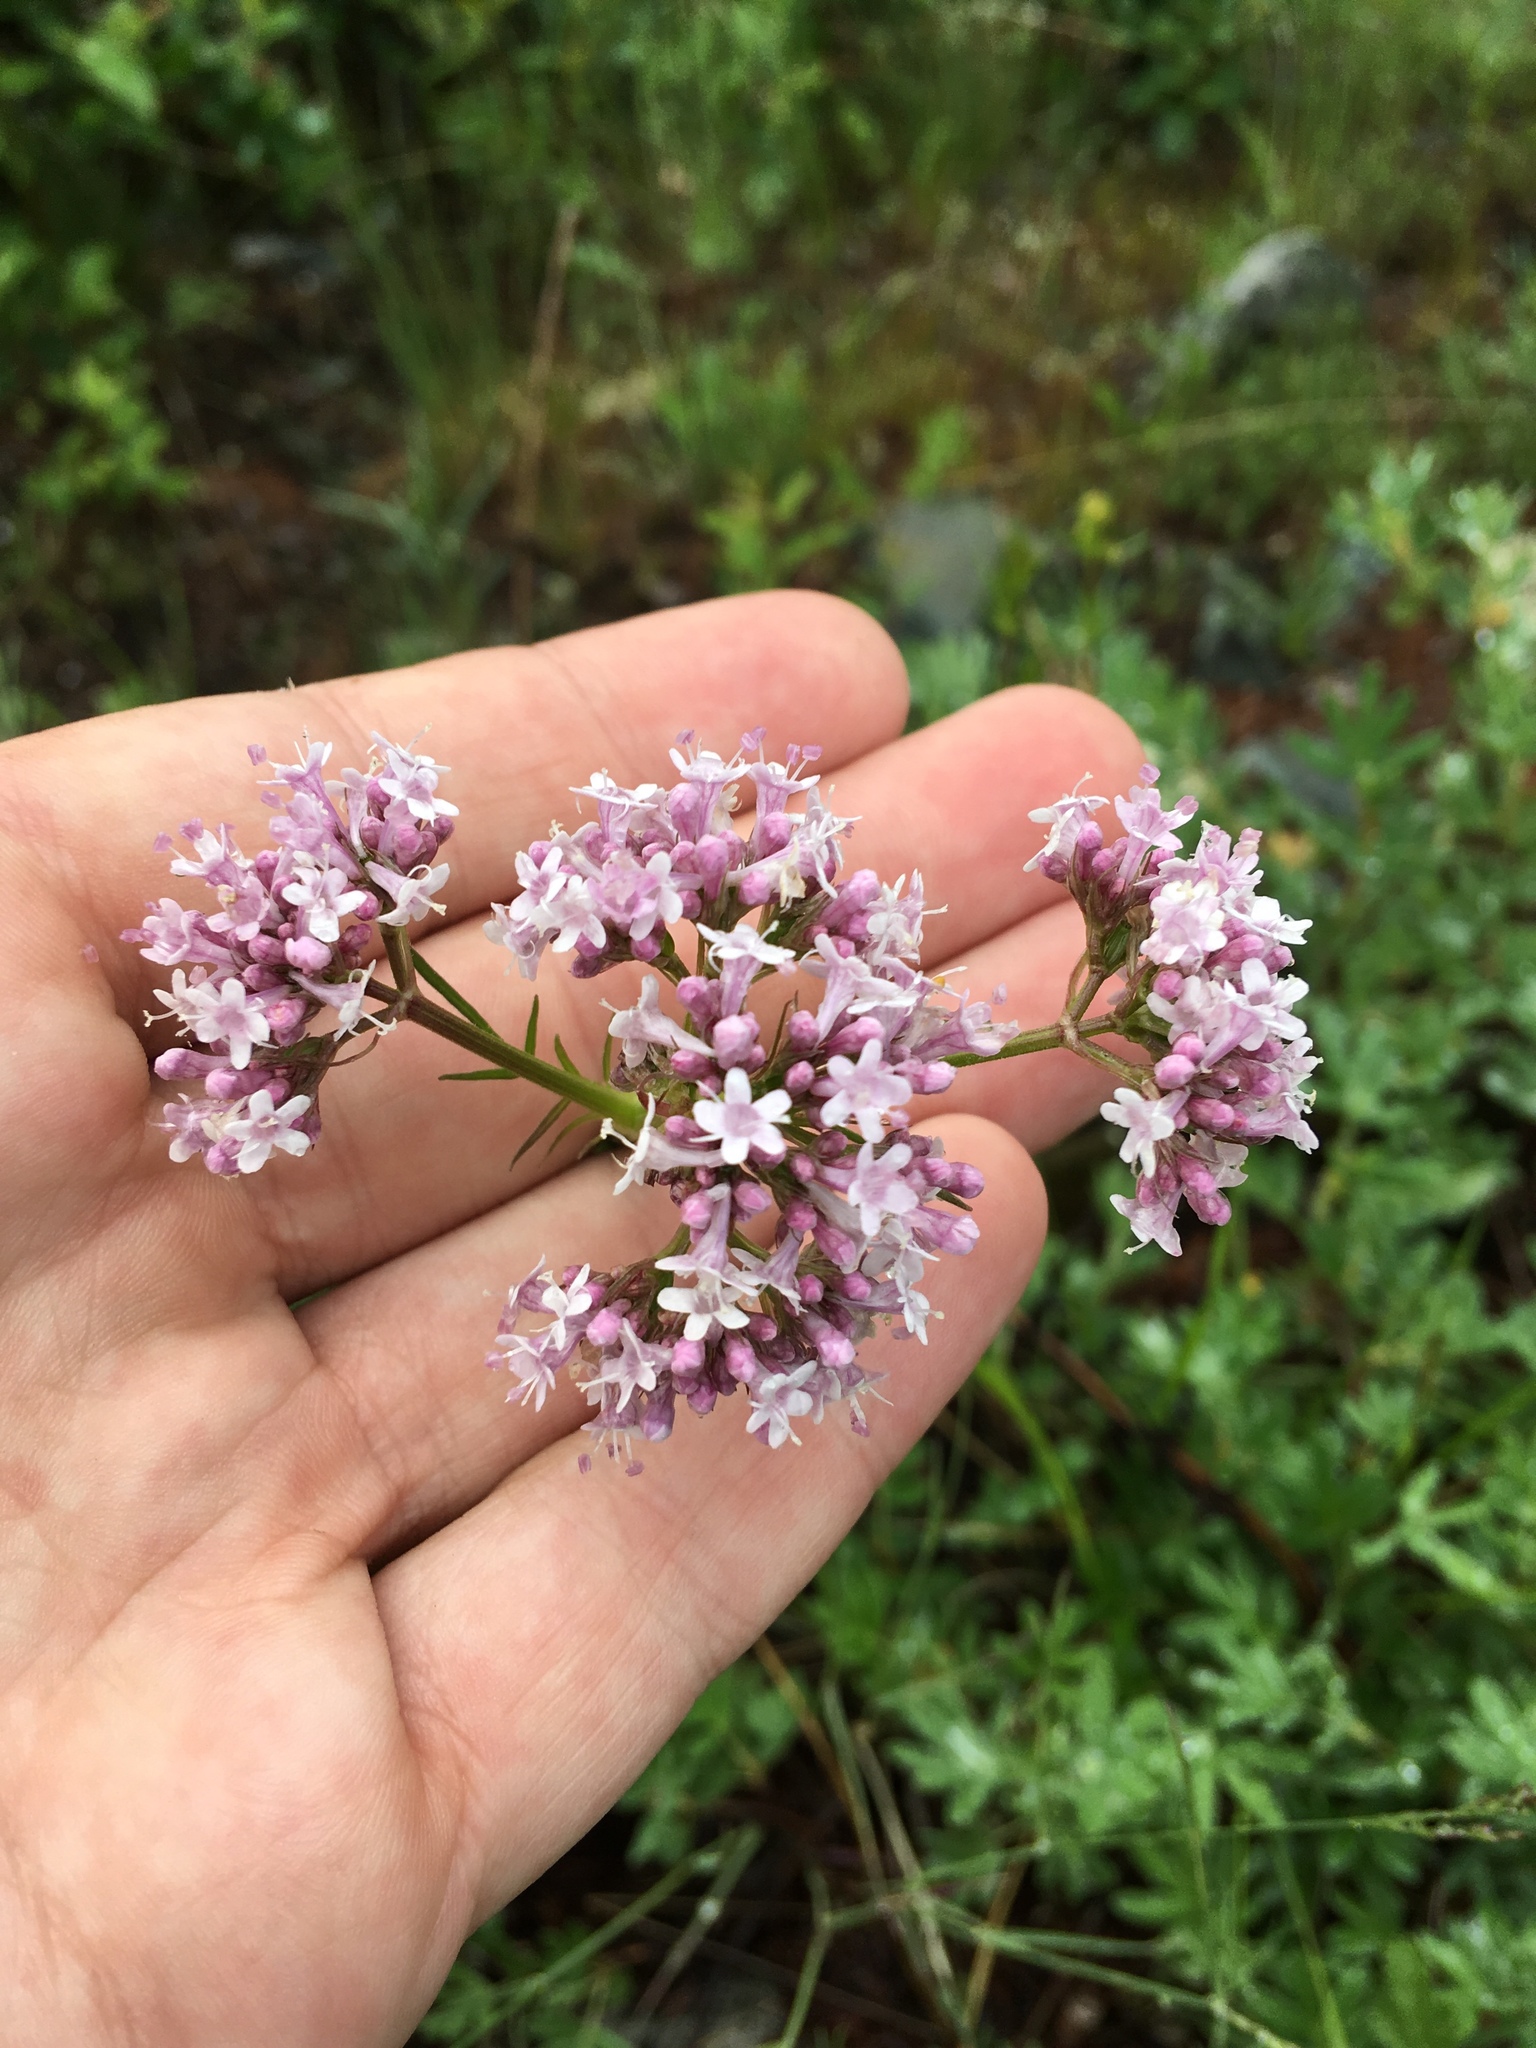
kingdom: Plantae
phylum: Tracheophyta
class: Magnoliopsida
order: Dipsacales
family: Caprifoliaceae
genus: Valeriana
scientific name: Valeriana officinalis
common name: Common valerian
